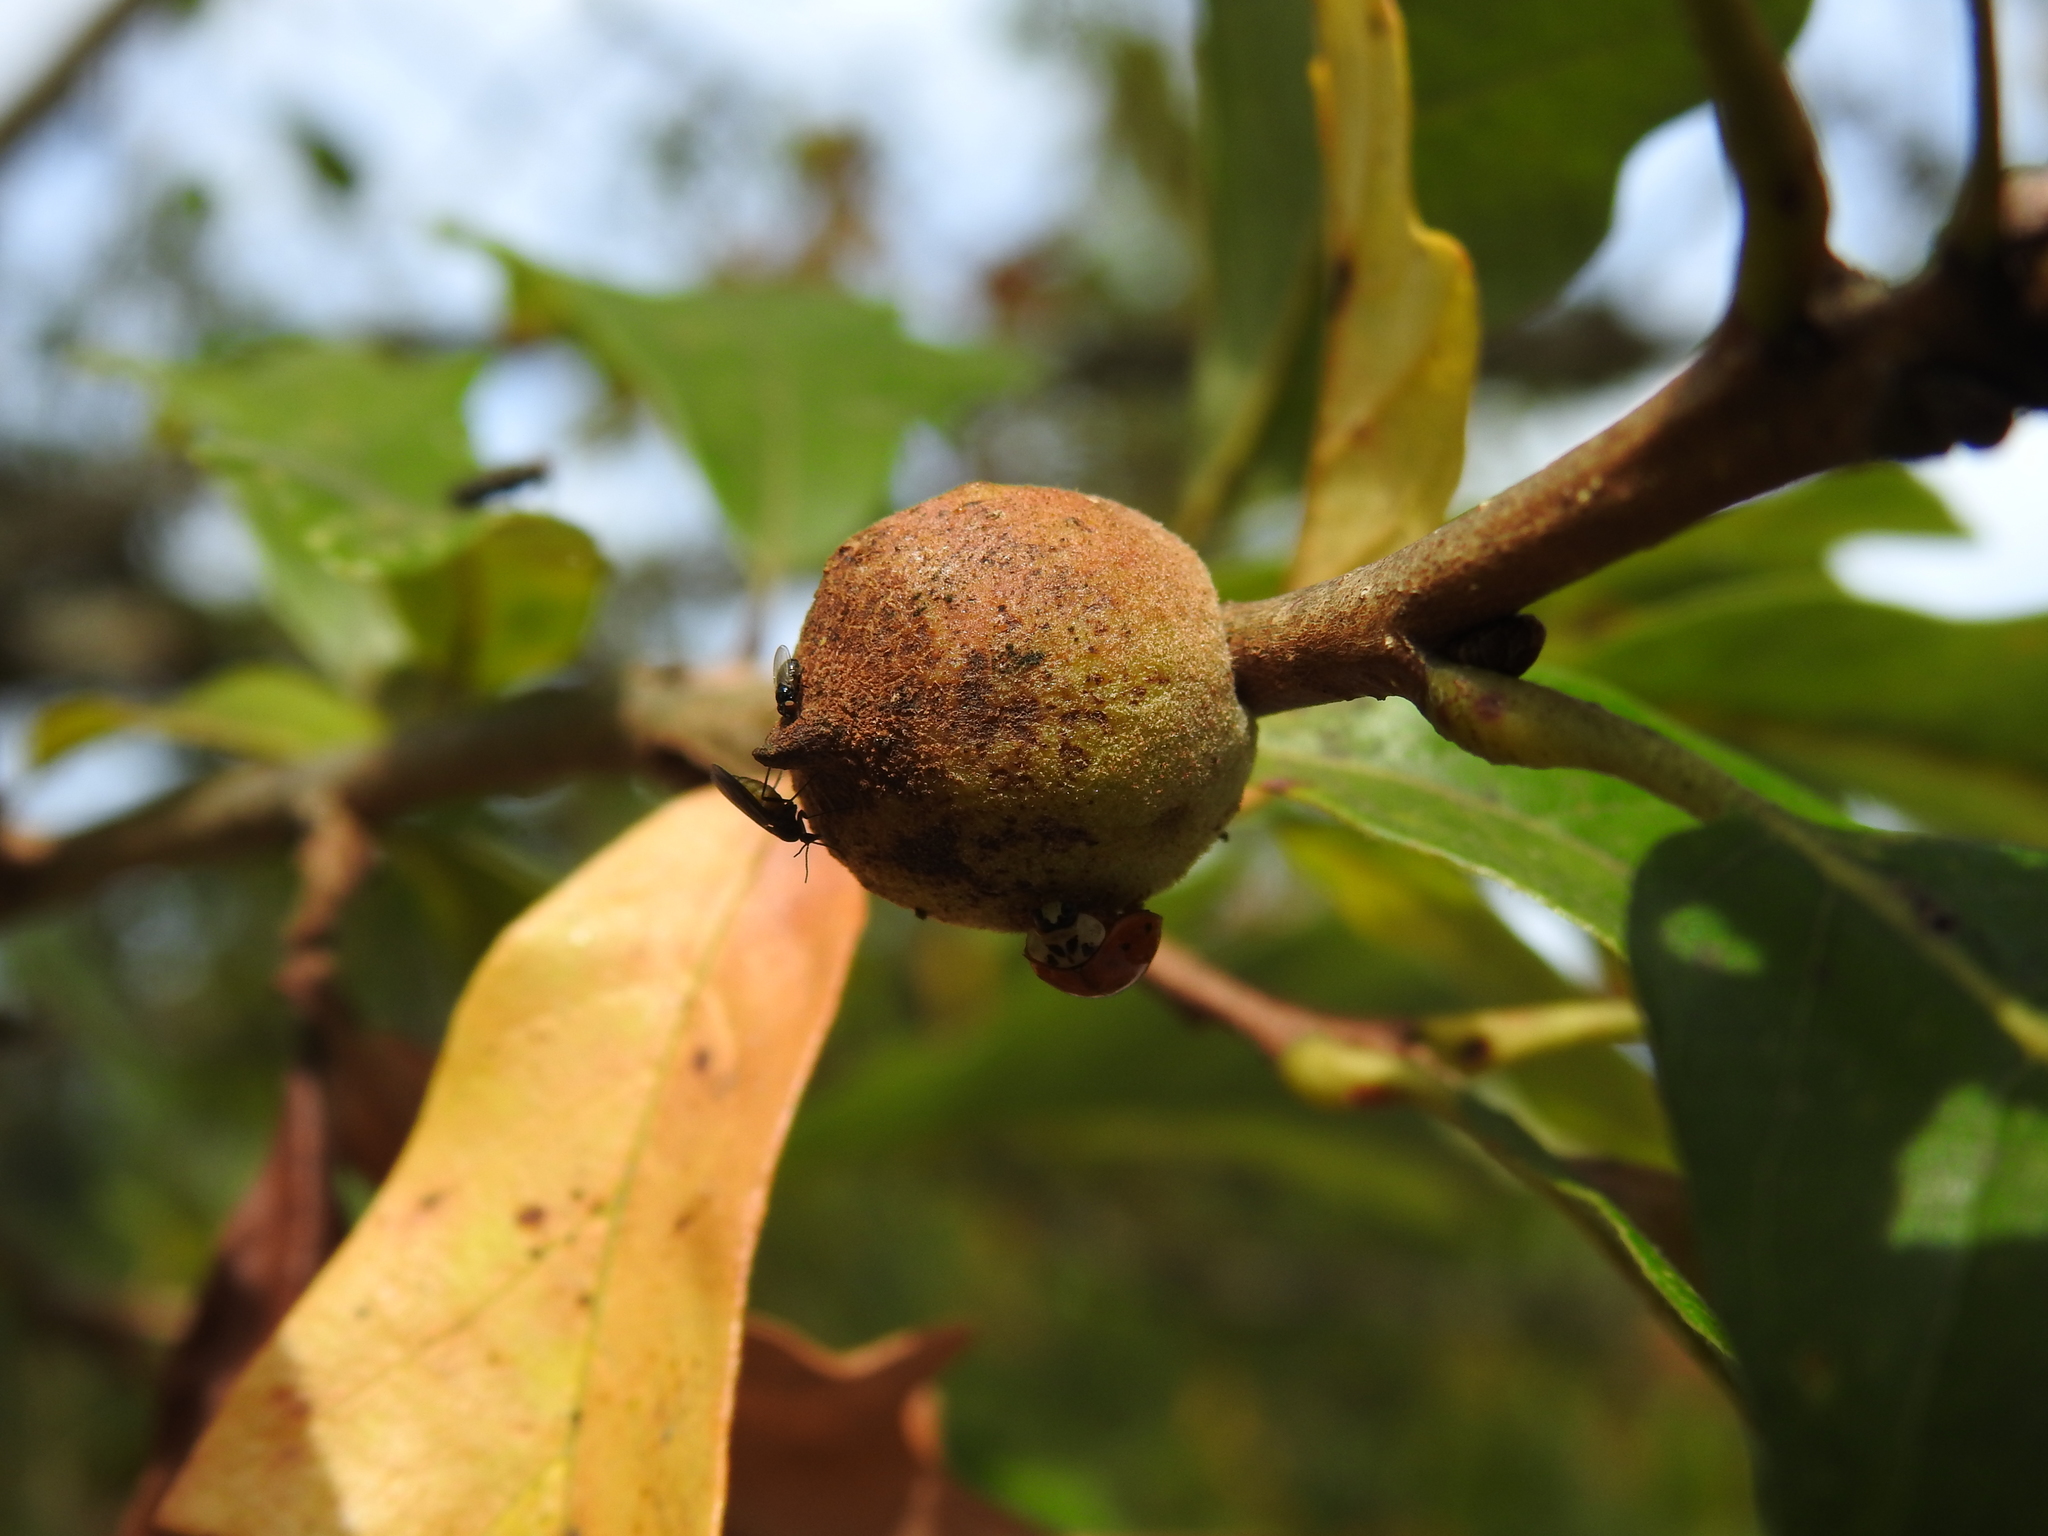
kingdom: Animalia
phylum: Arthropoda
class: Insecta
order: Hymenoptera
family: Cynipidae
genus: Disholcaspis
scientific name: Disholcaspis
